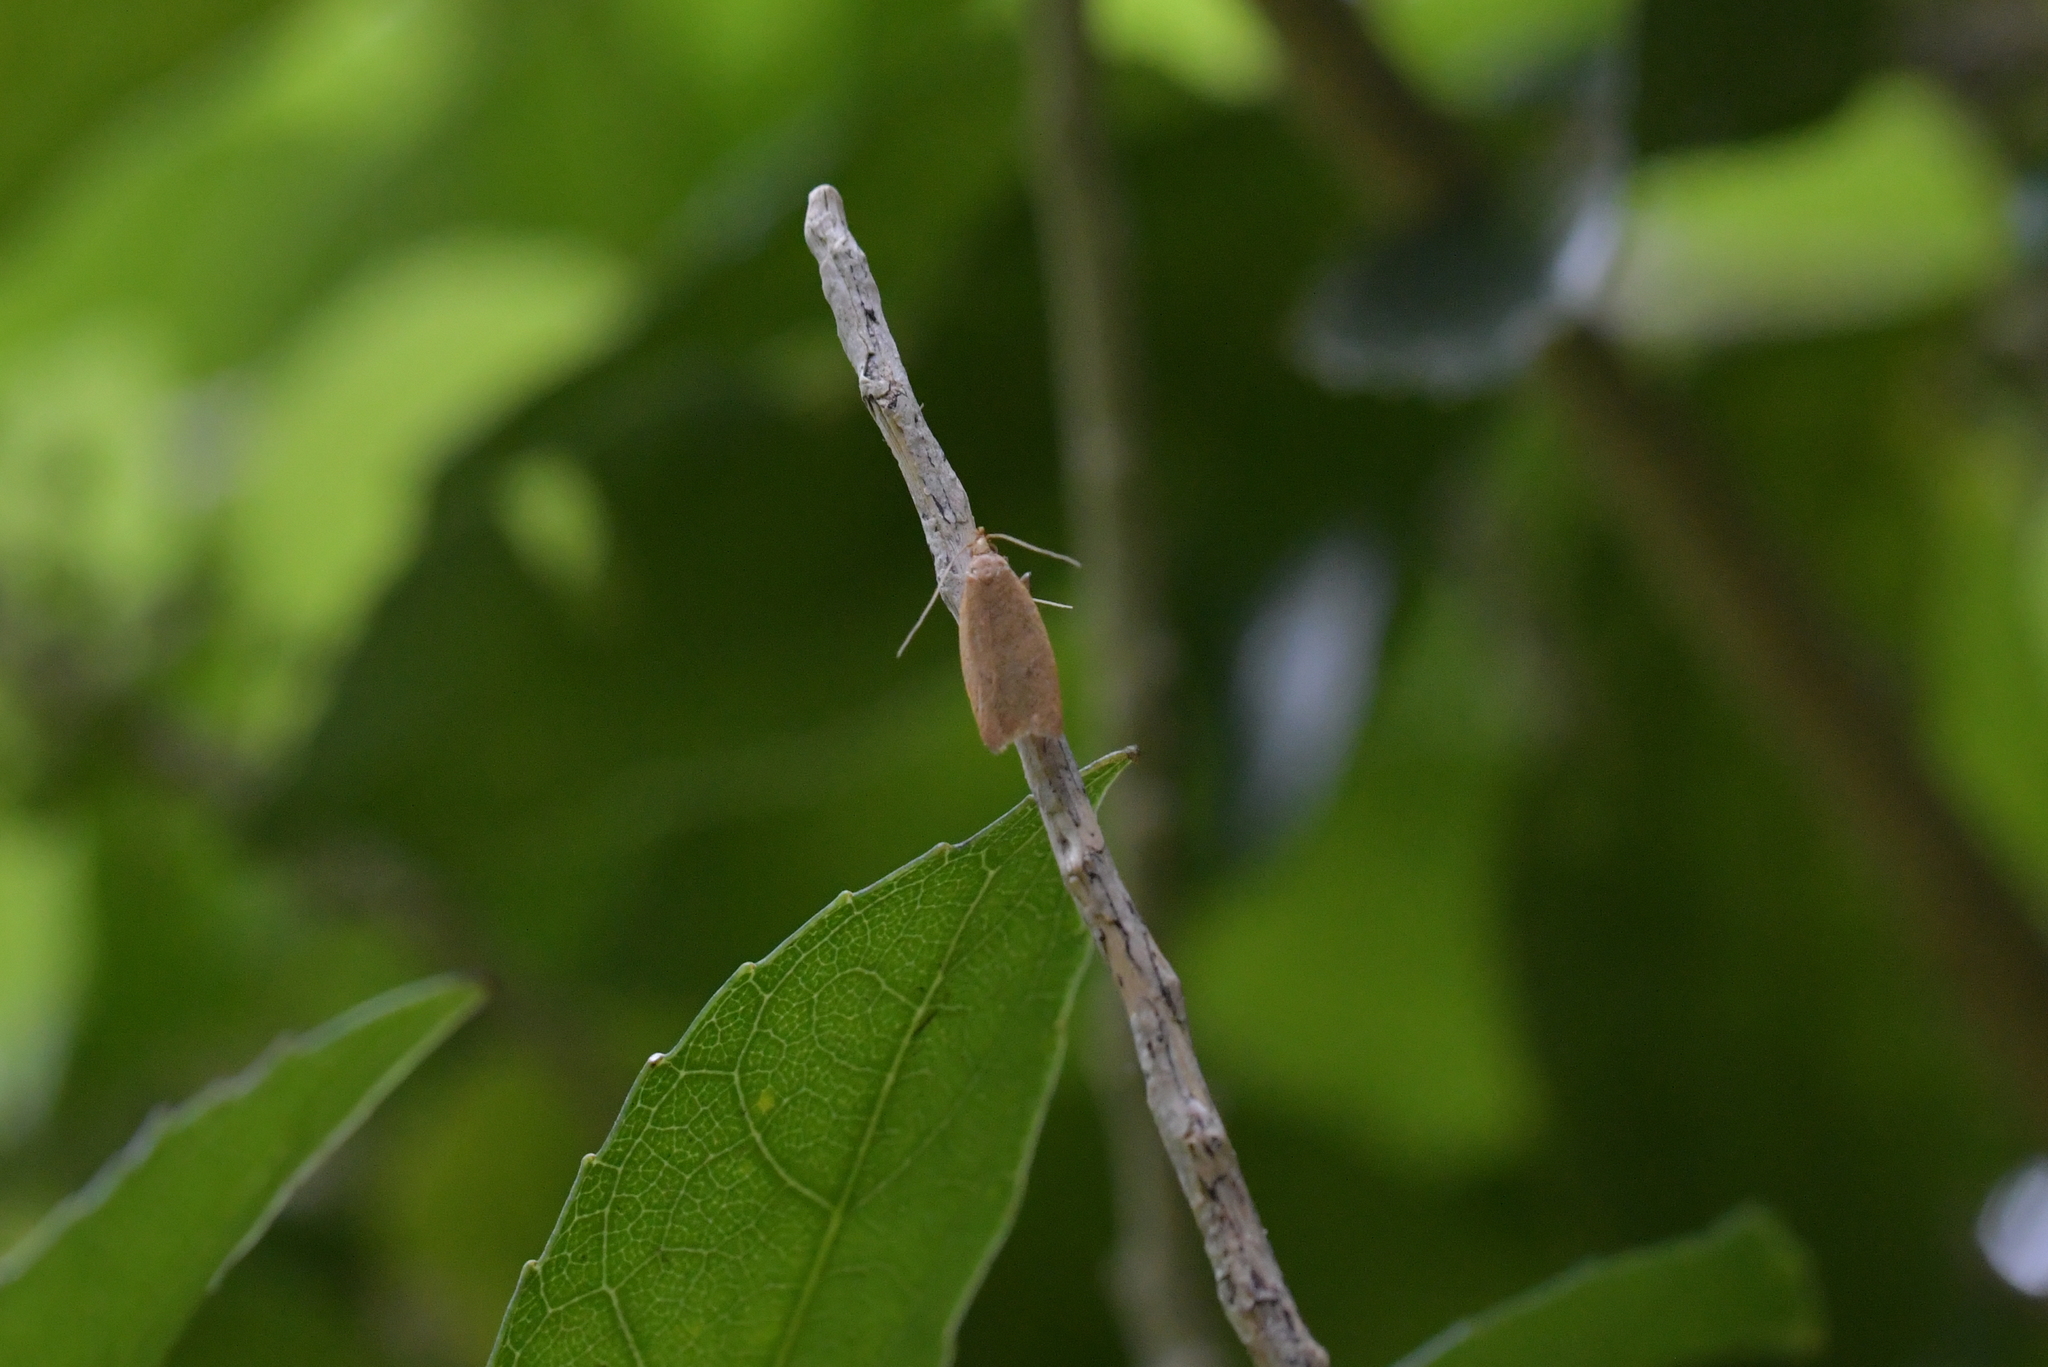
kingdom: Animalia
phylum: Arthropoda
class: Insecta
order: Lepidoptera
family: Oecophoridae
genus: Gymnobathra
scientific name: Gymnobathra sarcoxantha
